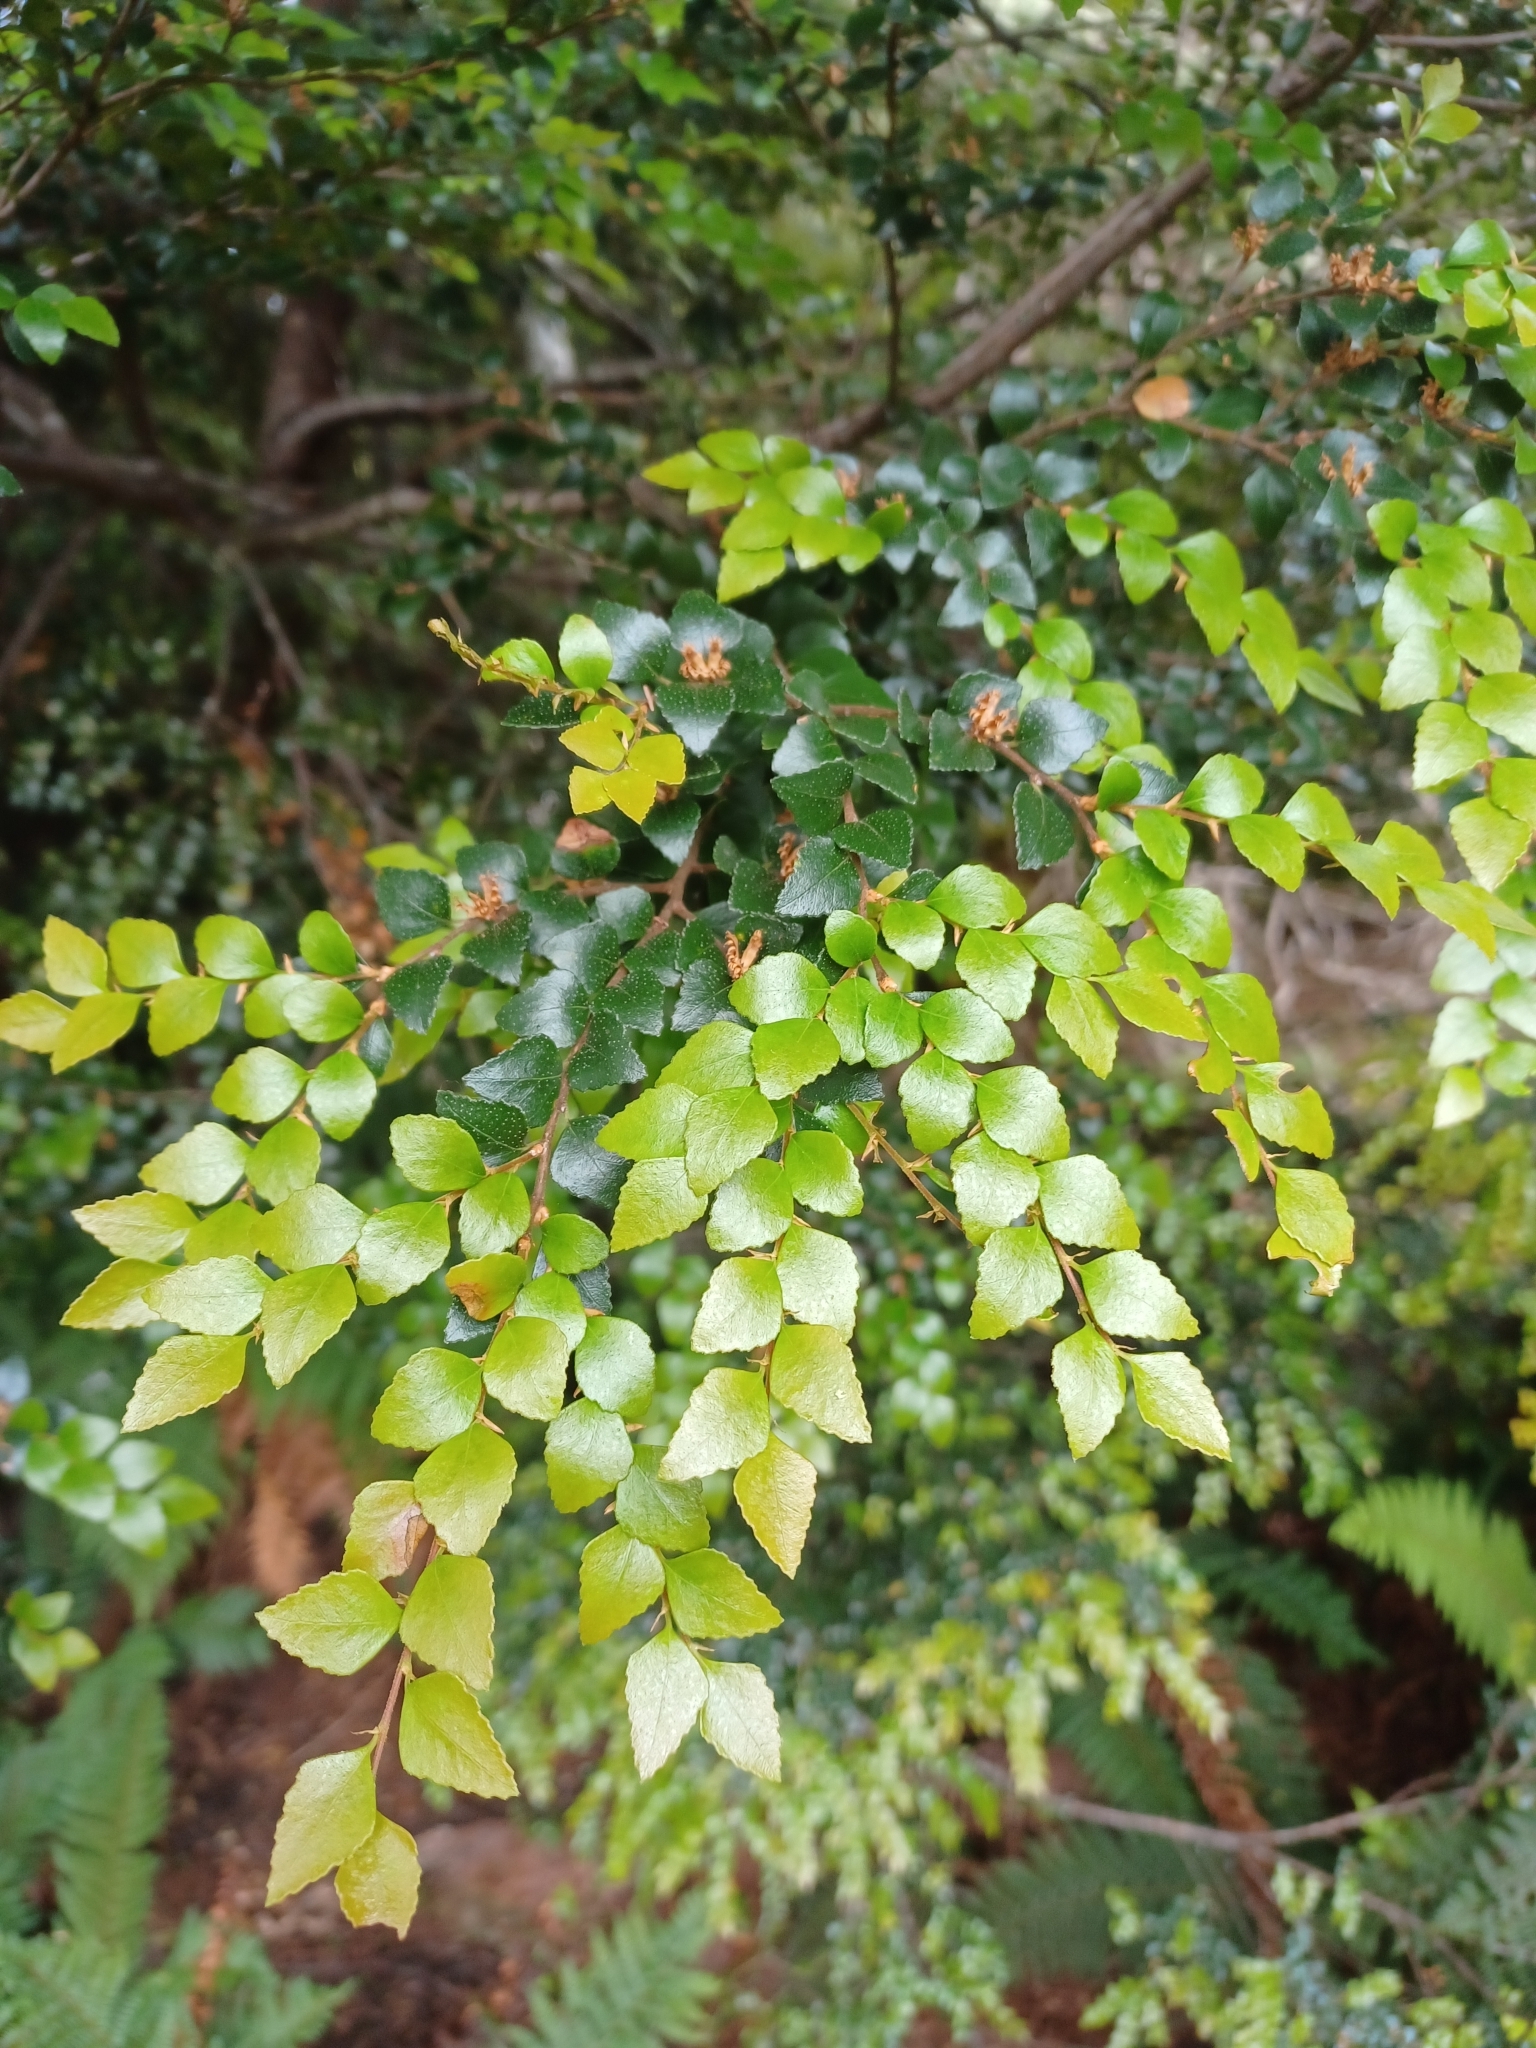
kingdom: Plantae
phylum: Tracheophyta
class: Magnoliopsida
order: Fagales
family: Nothofagaceae
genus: Nothofagus
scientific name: Nothofagus cunninghamii
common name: Myrtle beech
